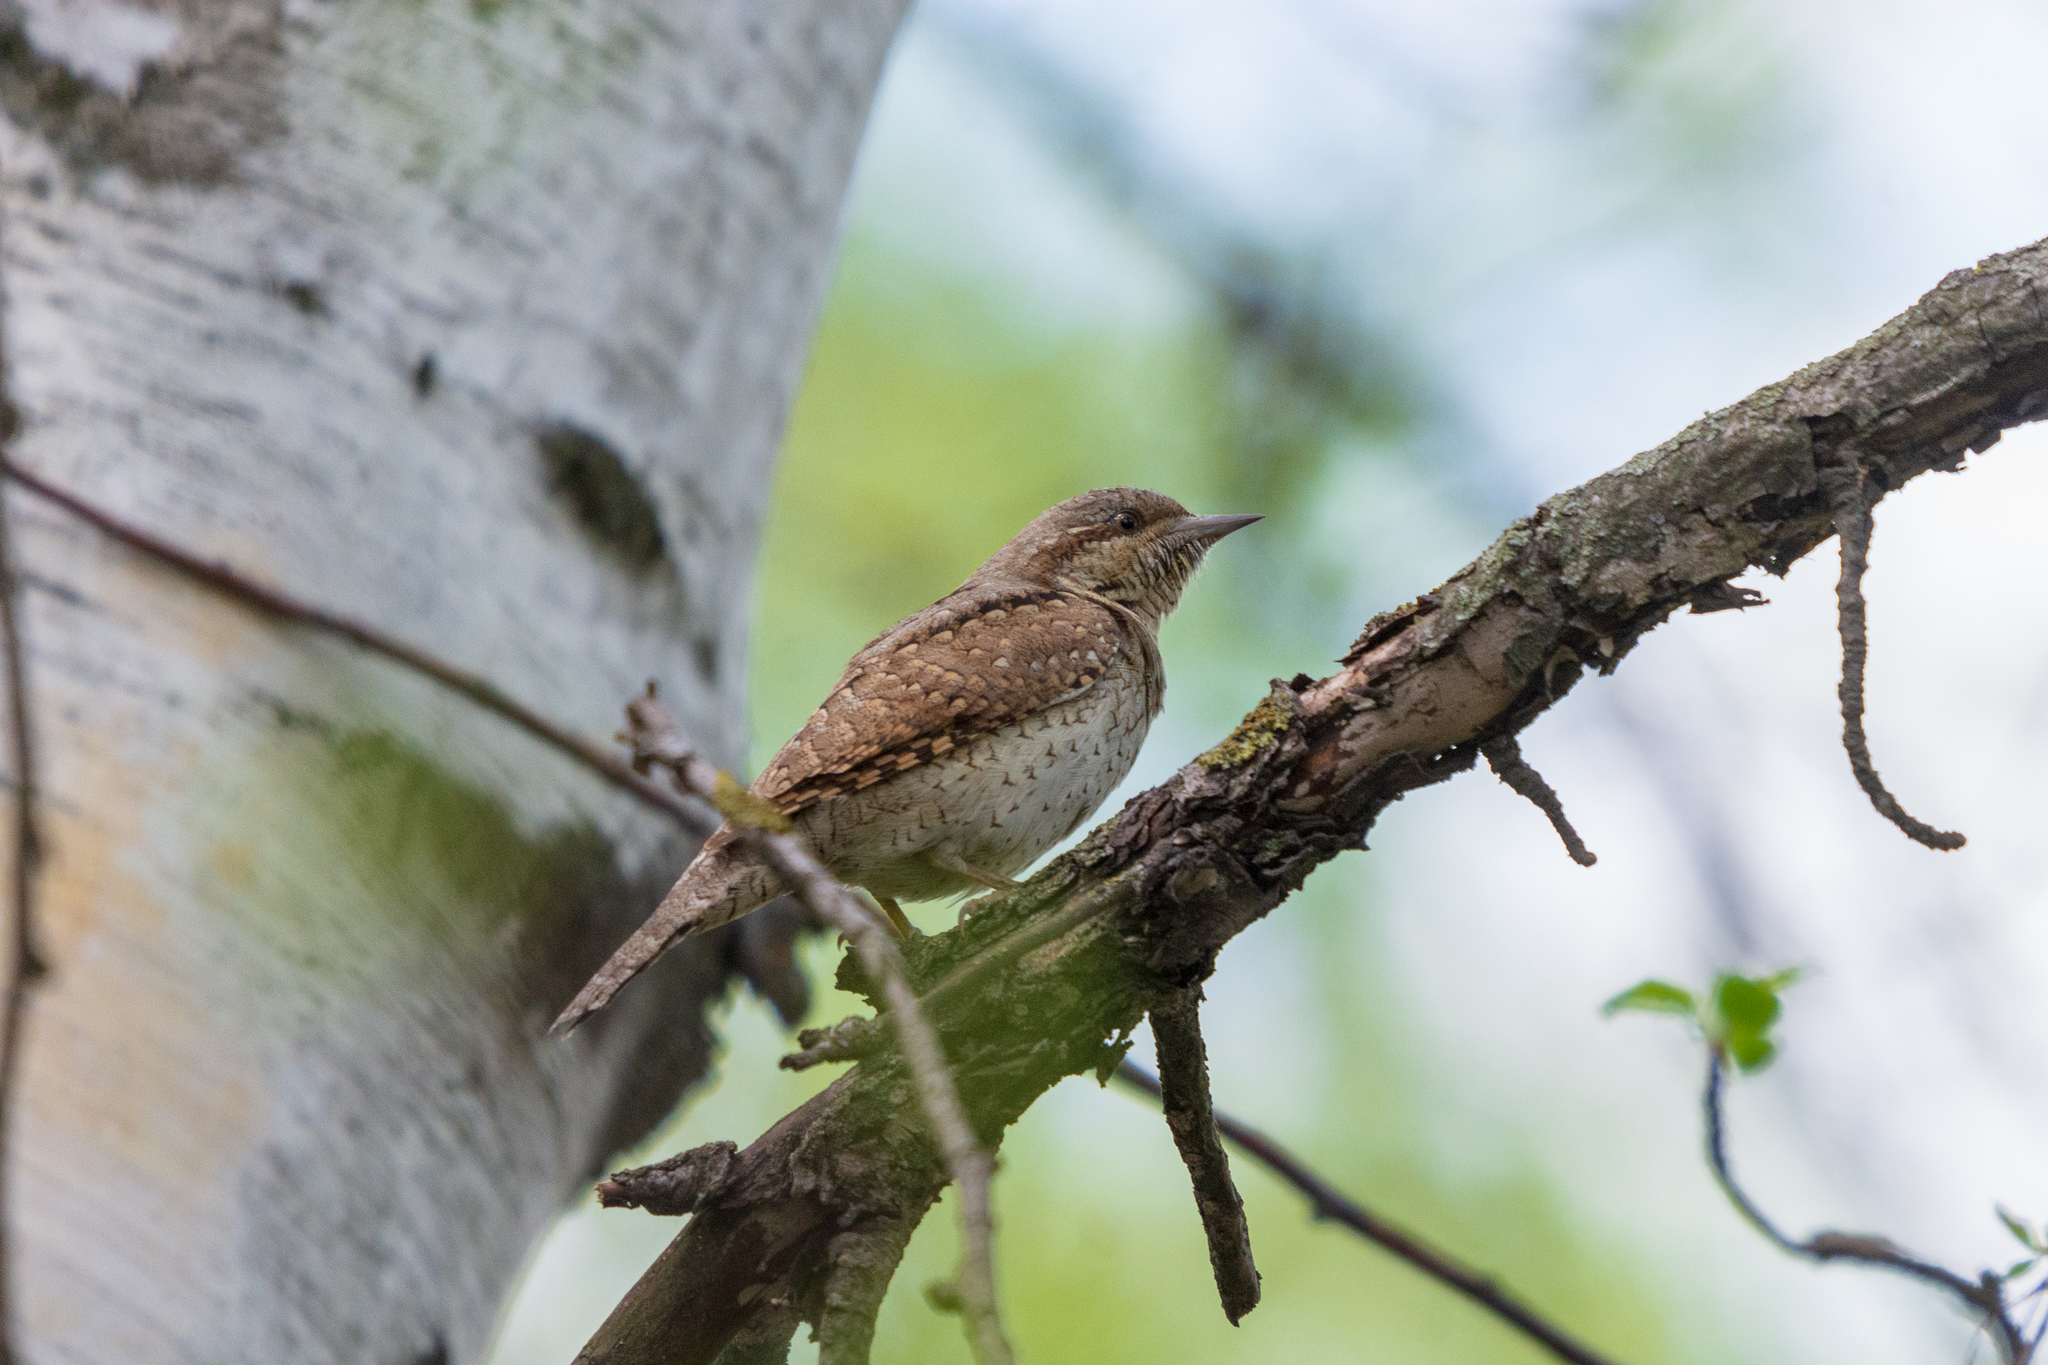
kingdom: Animalia
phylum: Chordata
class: Aves
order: Piciformes
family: Picidae
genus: Jynx
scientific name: Jynx torquilla
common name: Eurasian wryneck
